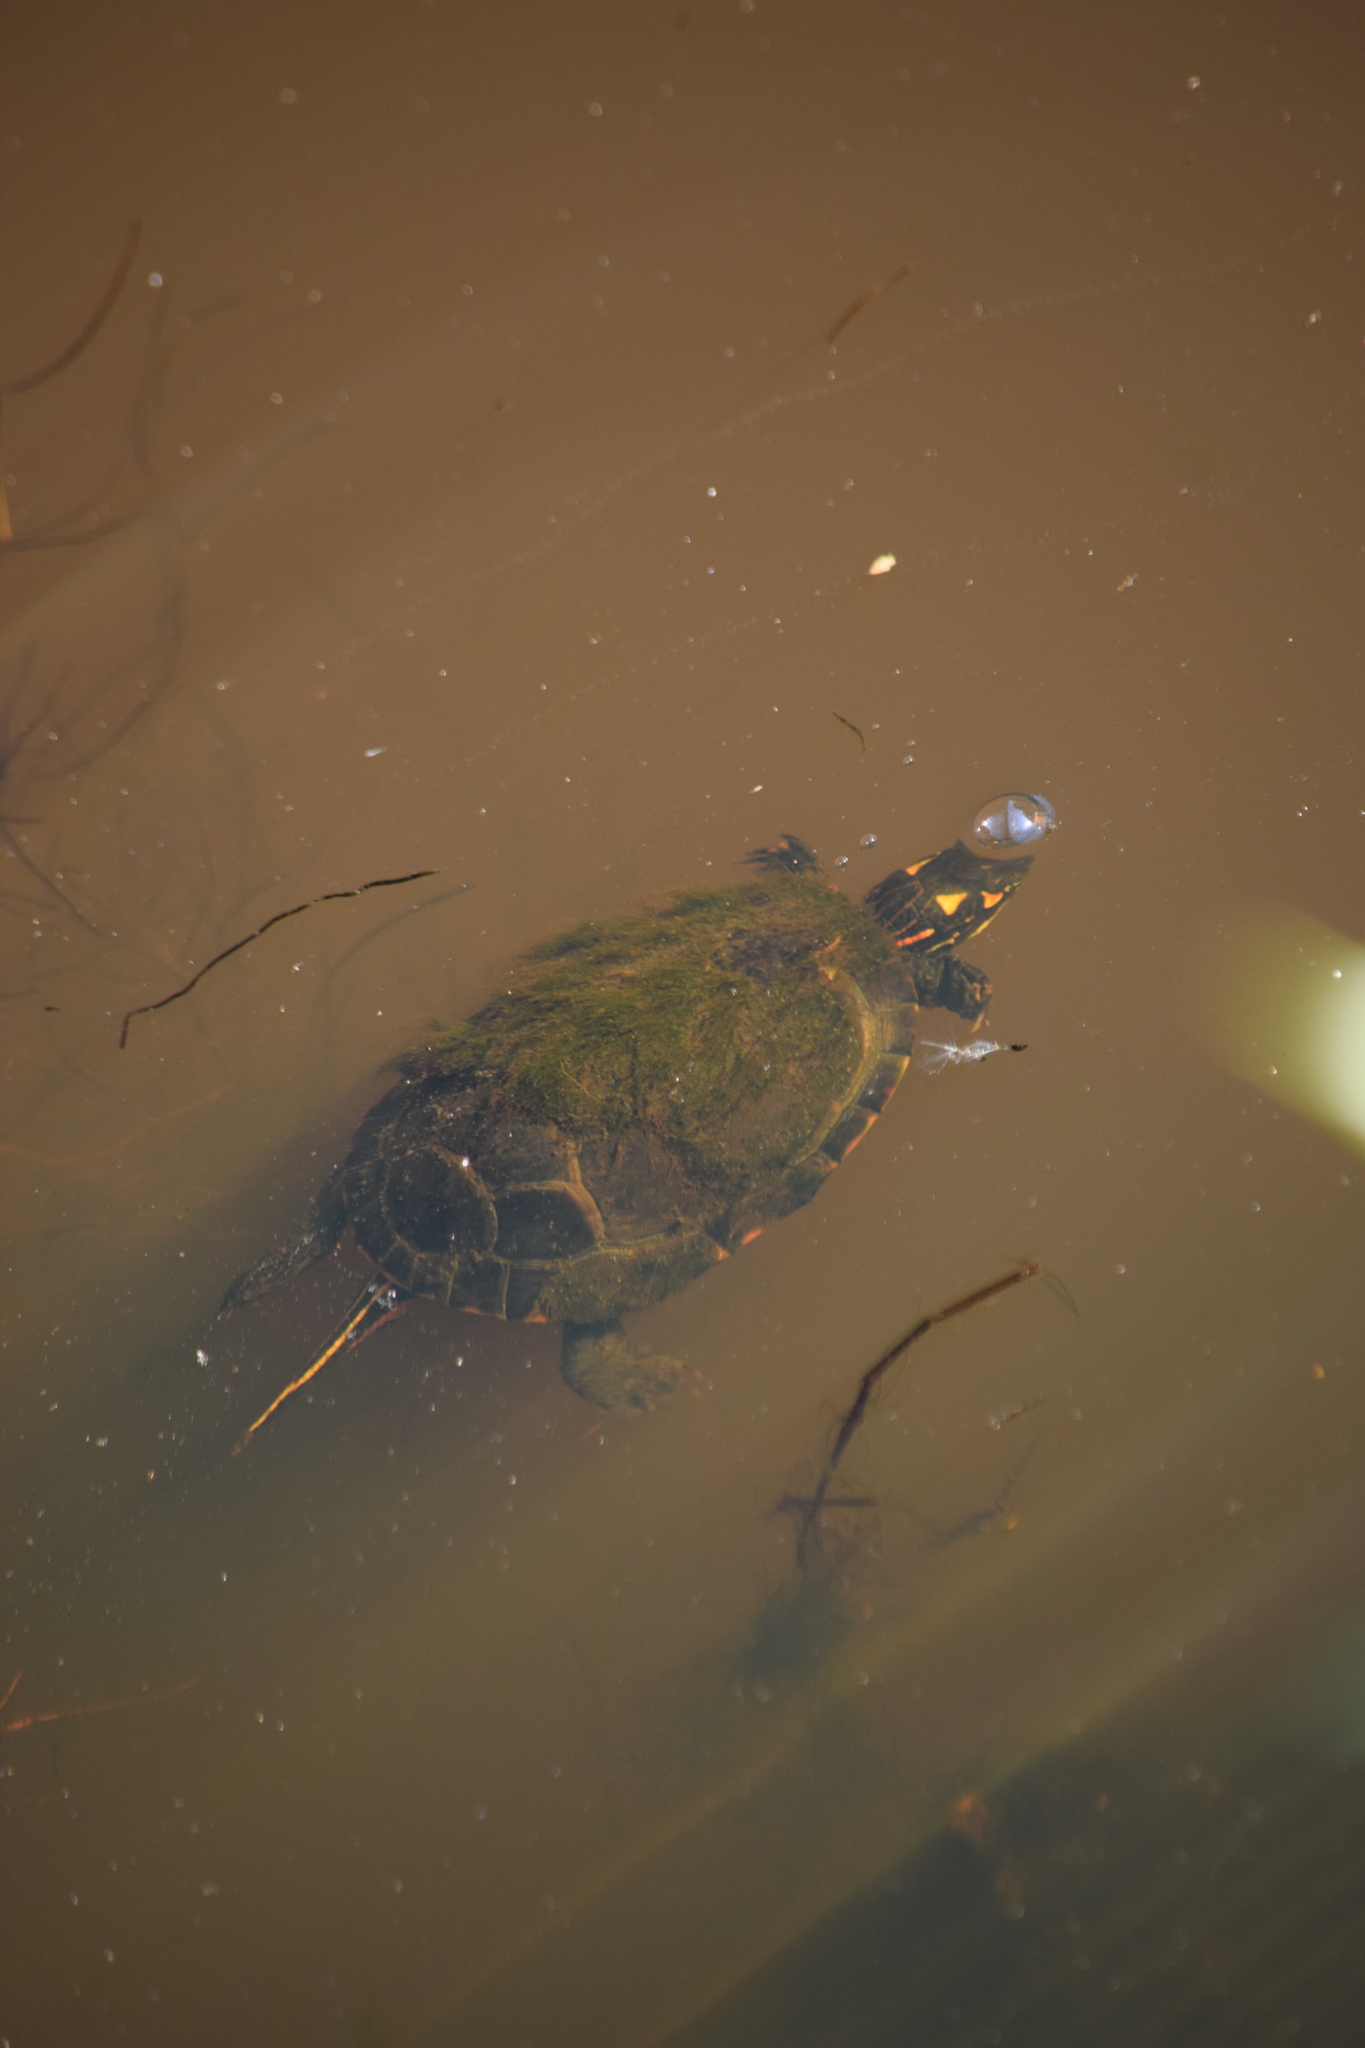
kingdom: Animalia
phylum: Chordata
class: Testudines
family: Emydidae
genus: Chrysemys
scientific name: Chrysemys picta
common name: Painted turtle
